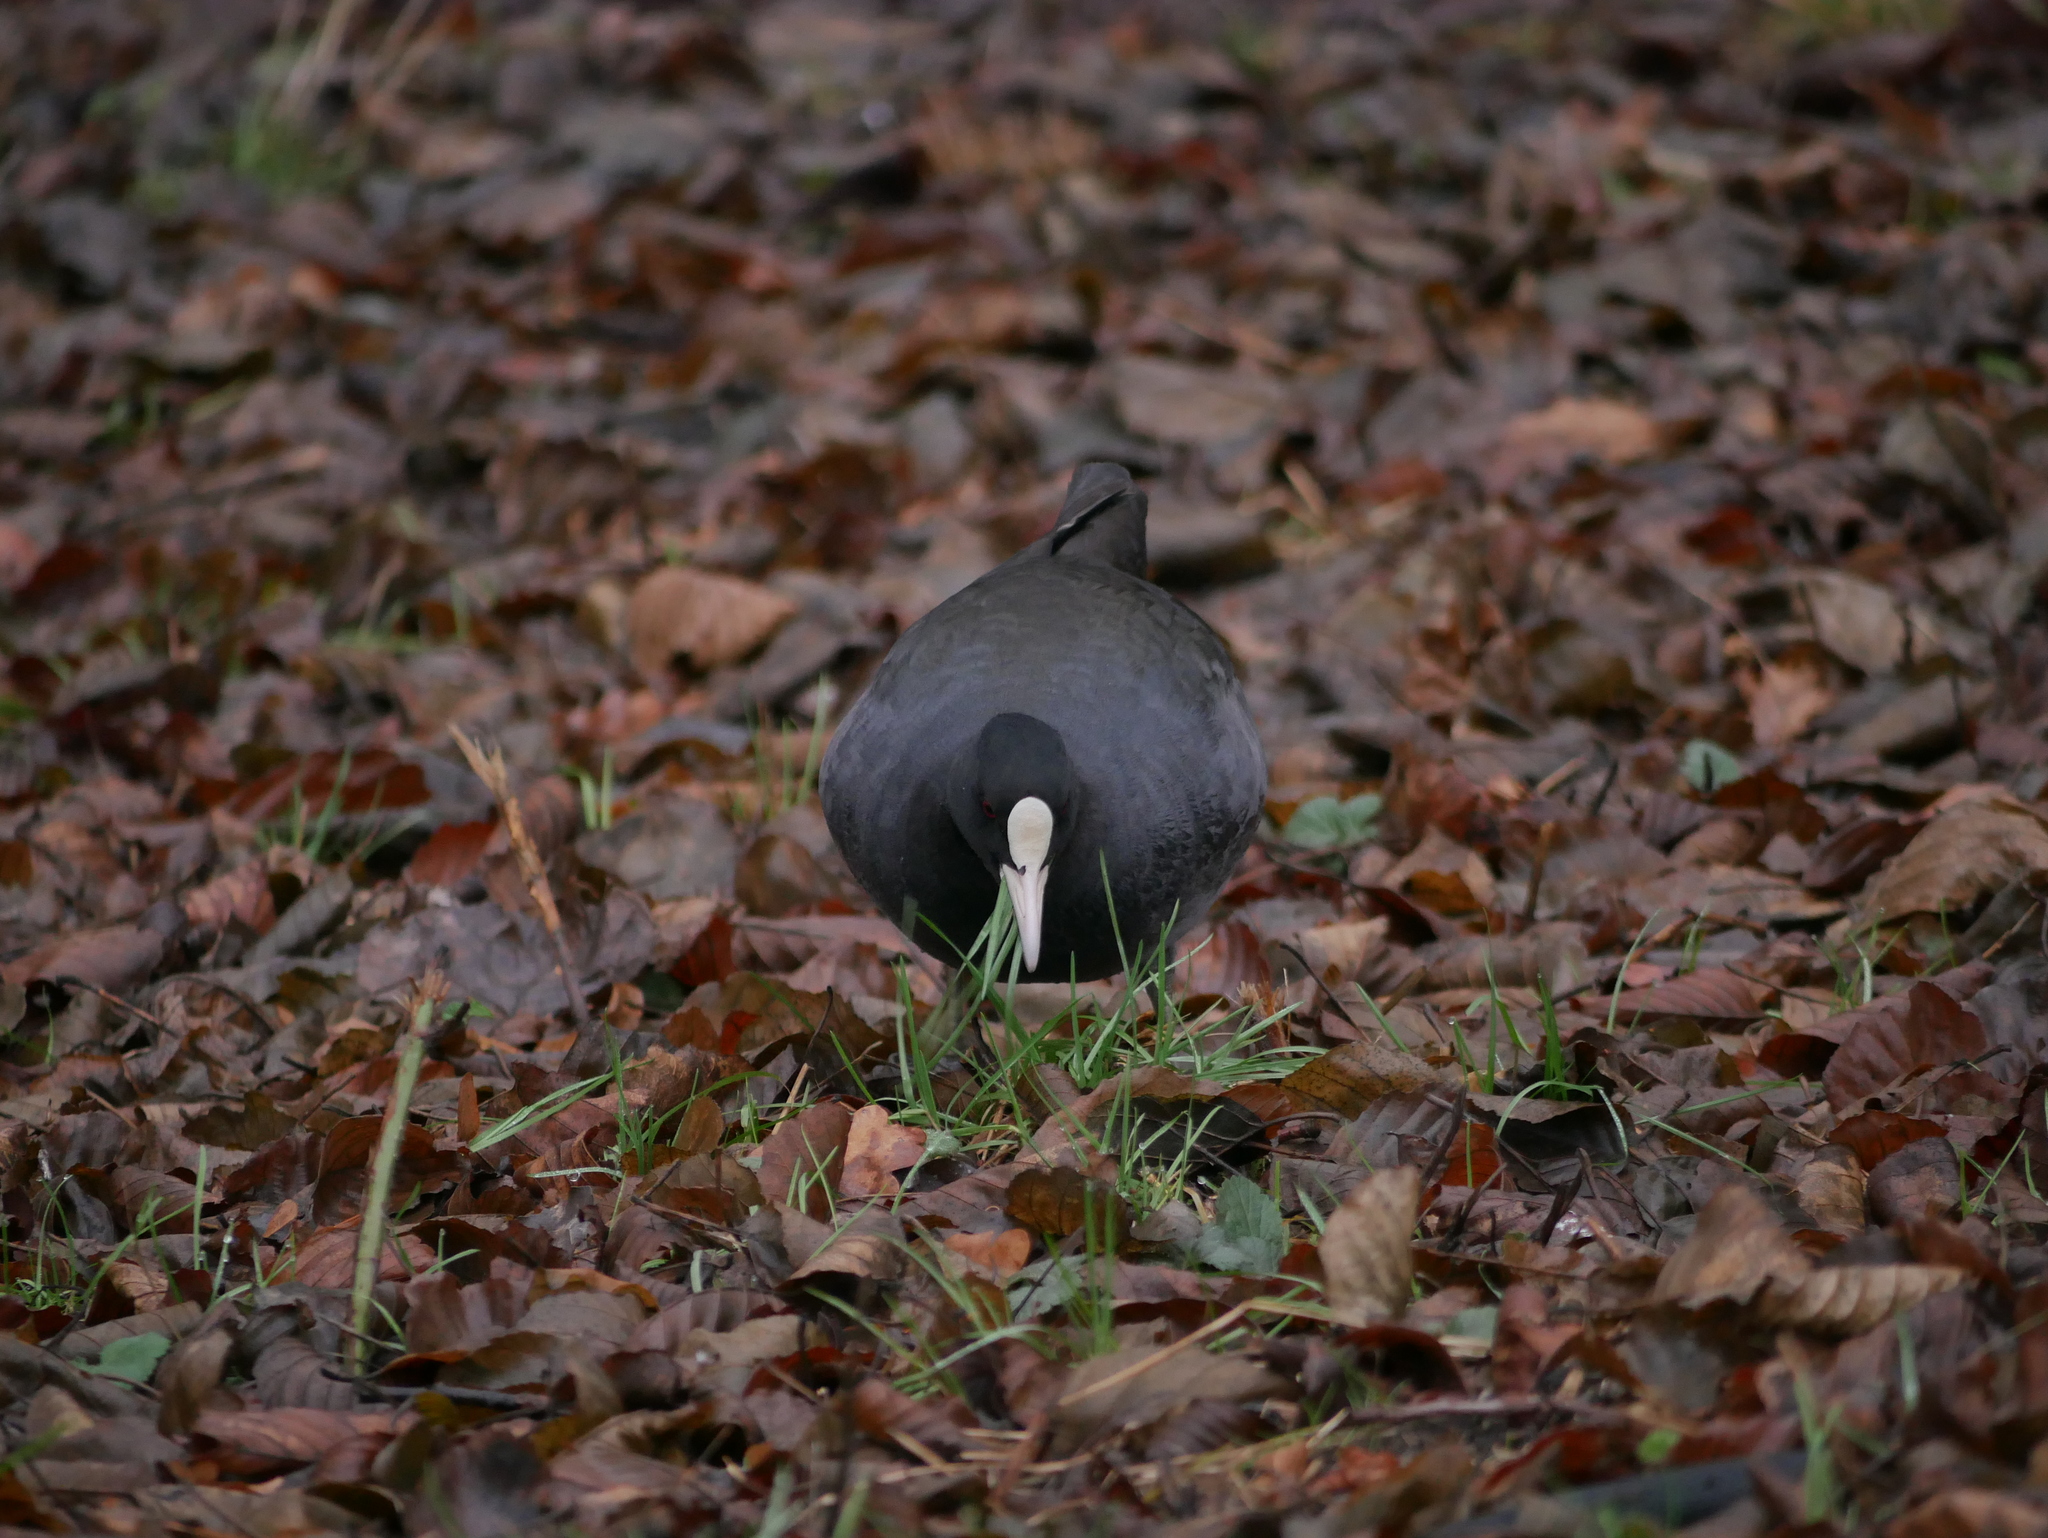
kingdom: Animalia
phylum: Chordata
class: Aves
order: Gruiformes
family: Rallidae
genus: Fulica
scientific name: Fulica atra
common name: Eurasian coot
